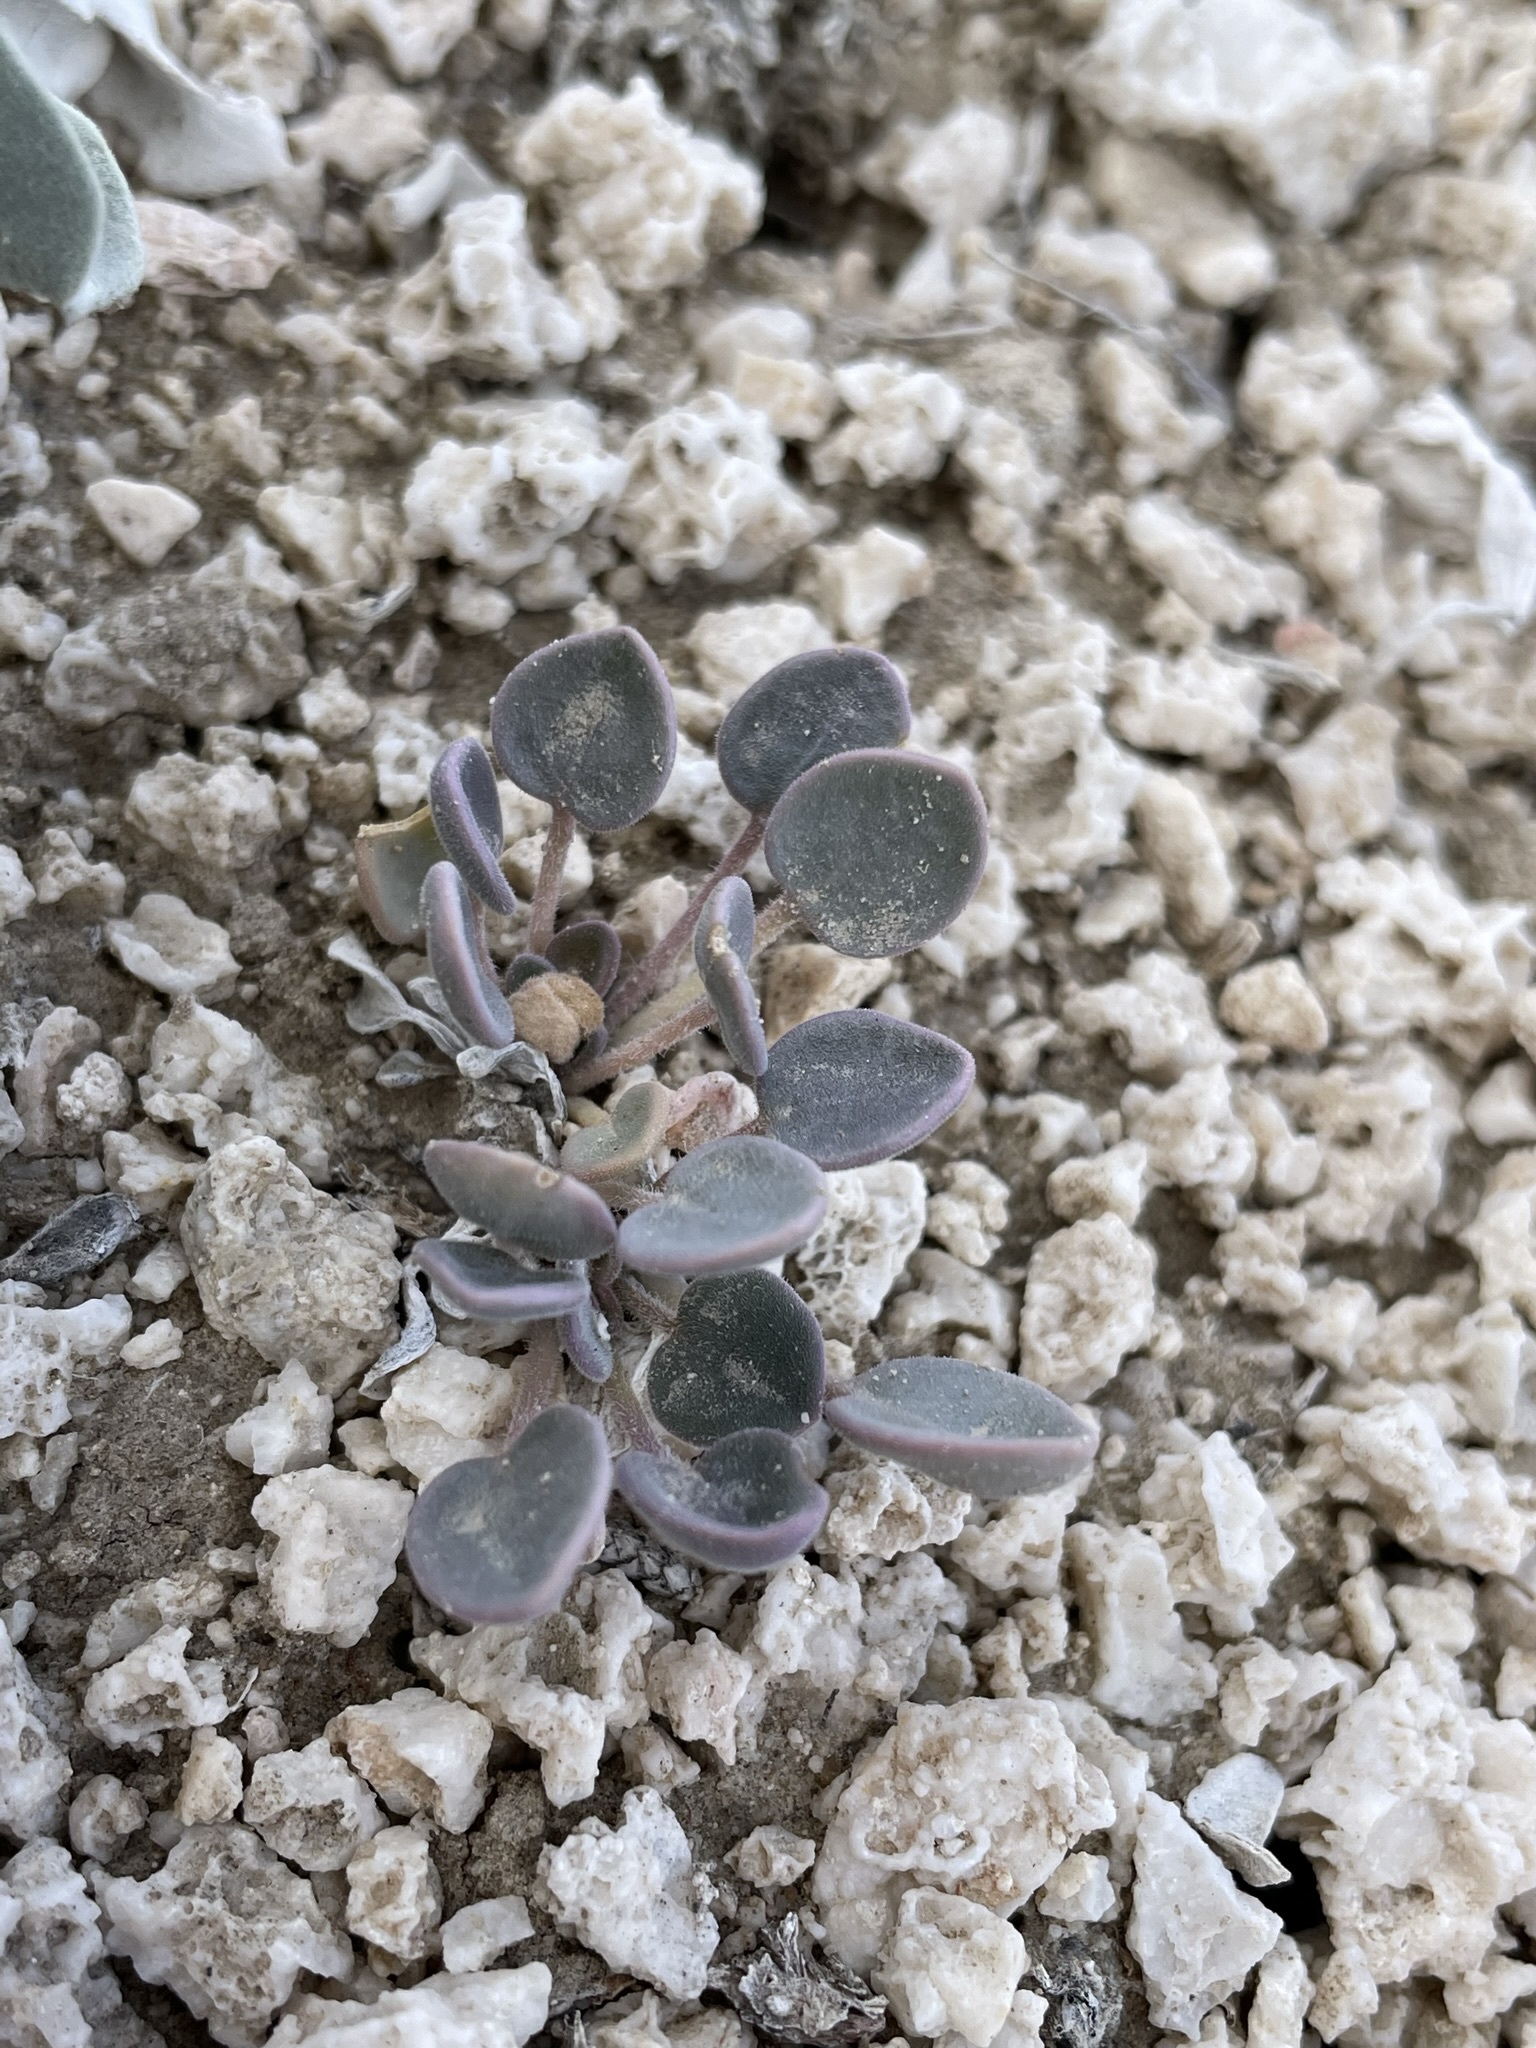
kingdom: Plantae
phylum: Tracheophyta
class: Magnoliopsida
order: Caryophyllales
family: Nyctaginaceae
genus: Abronia
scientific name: Abronia nana
